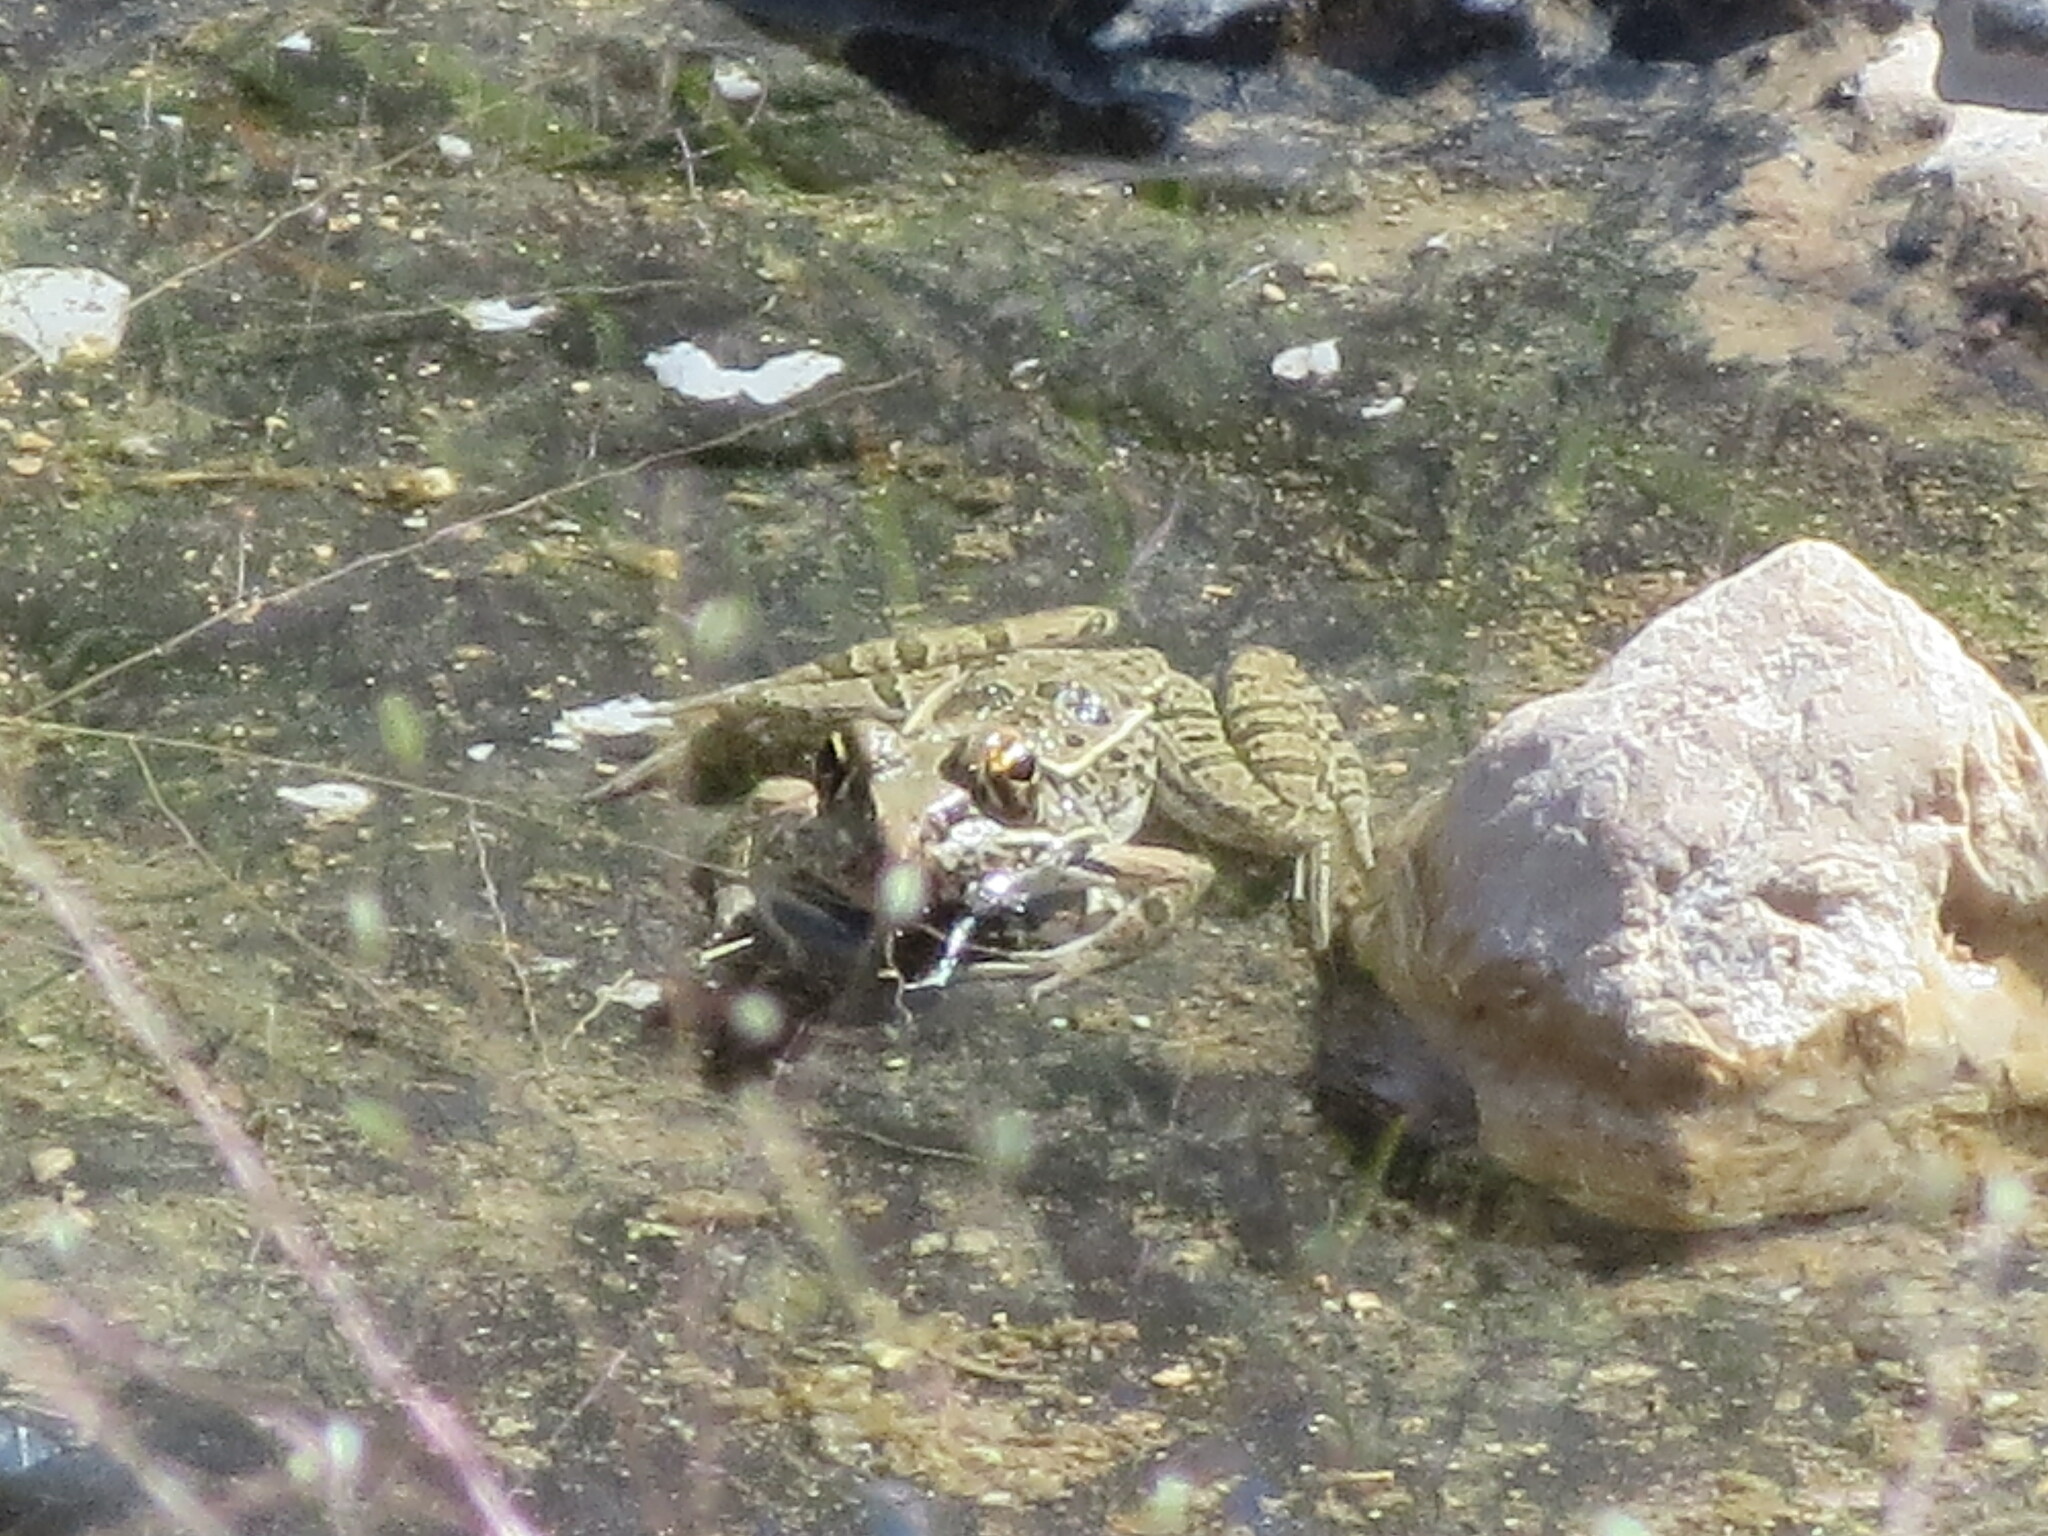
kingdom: Animalia
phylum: Chordata
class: Amphibia
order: Anura
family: Ranidae
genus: Lithobates
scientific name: Lithobates berlandieri
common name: Rio grande leopard frog
